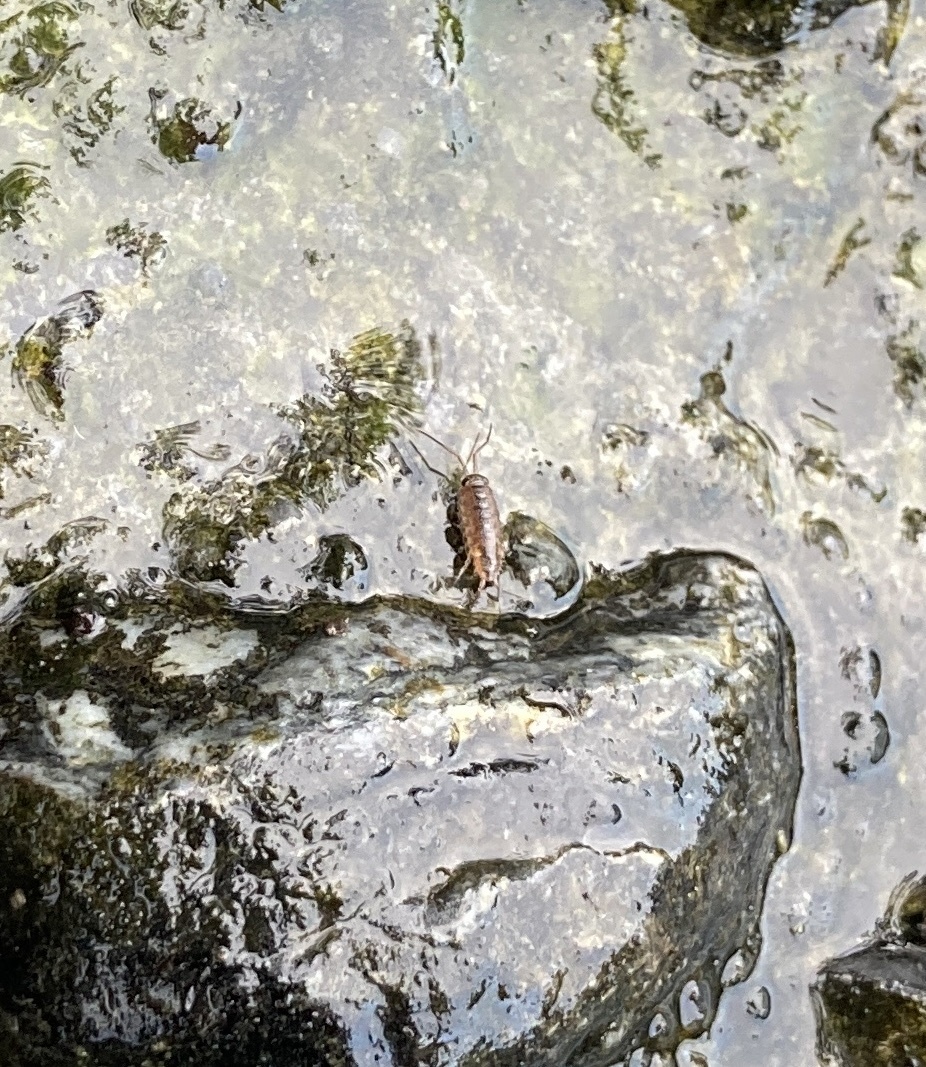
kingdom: Animalia
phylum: Arthropoda
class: Malacostraca
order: Isopoda
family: Ligiidae
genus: Ligia
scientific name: Ligia novizealandiae
